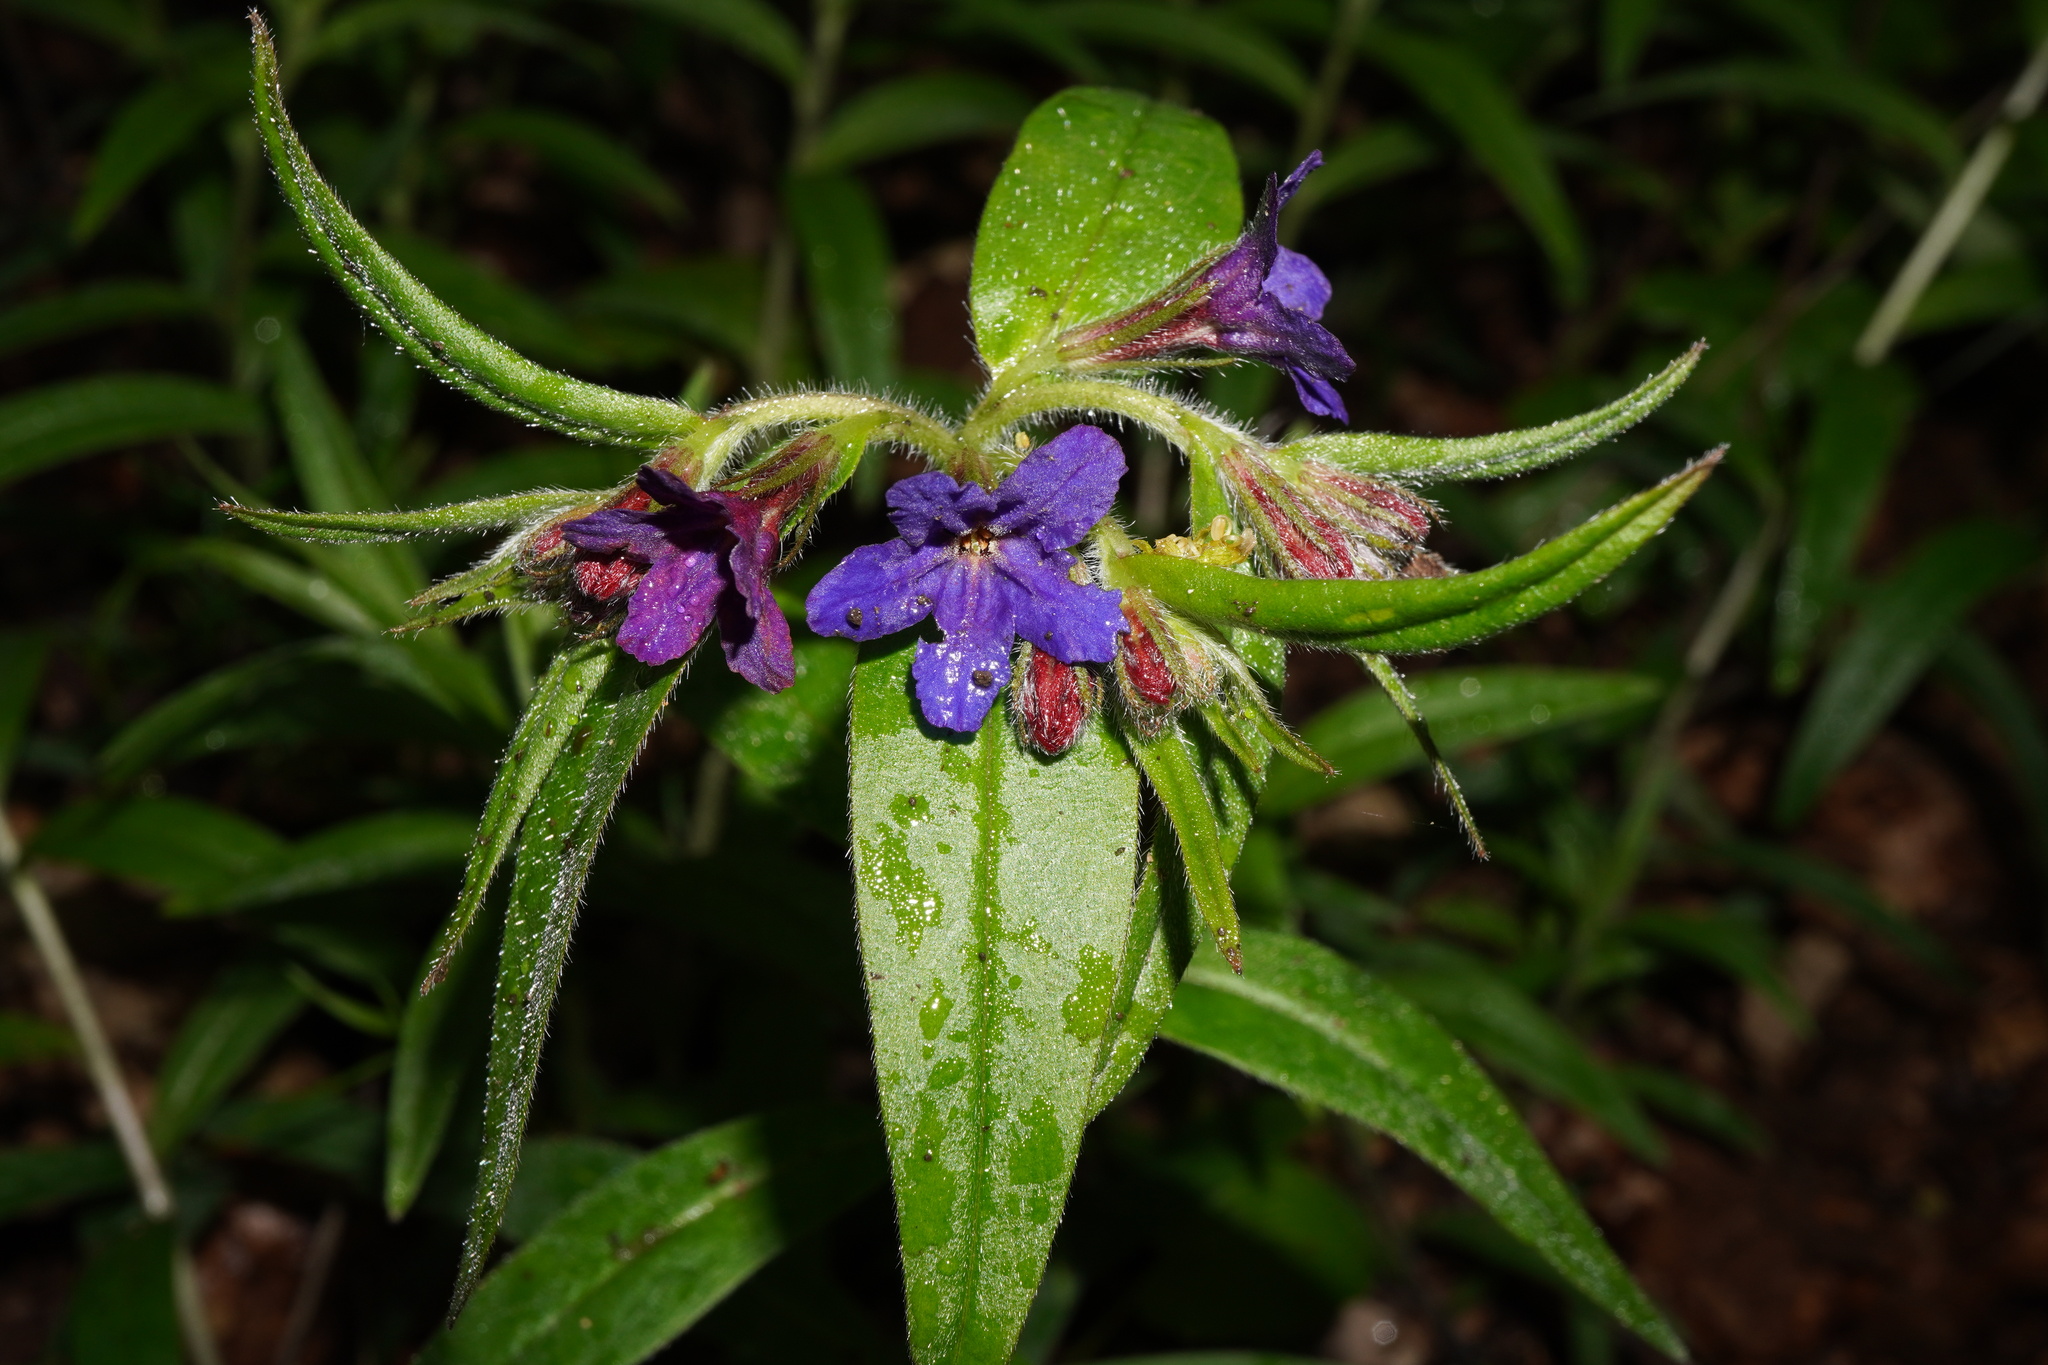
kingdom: Plantae
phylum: Tracheophyta
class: Magnoliopsida
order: Boraginales
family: Boraginaceae
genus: Aegonychon
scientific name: Aegonychon purpurocaeruleum
